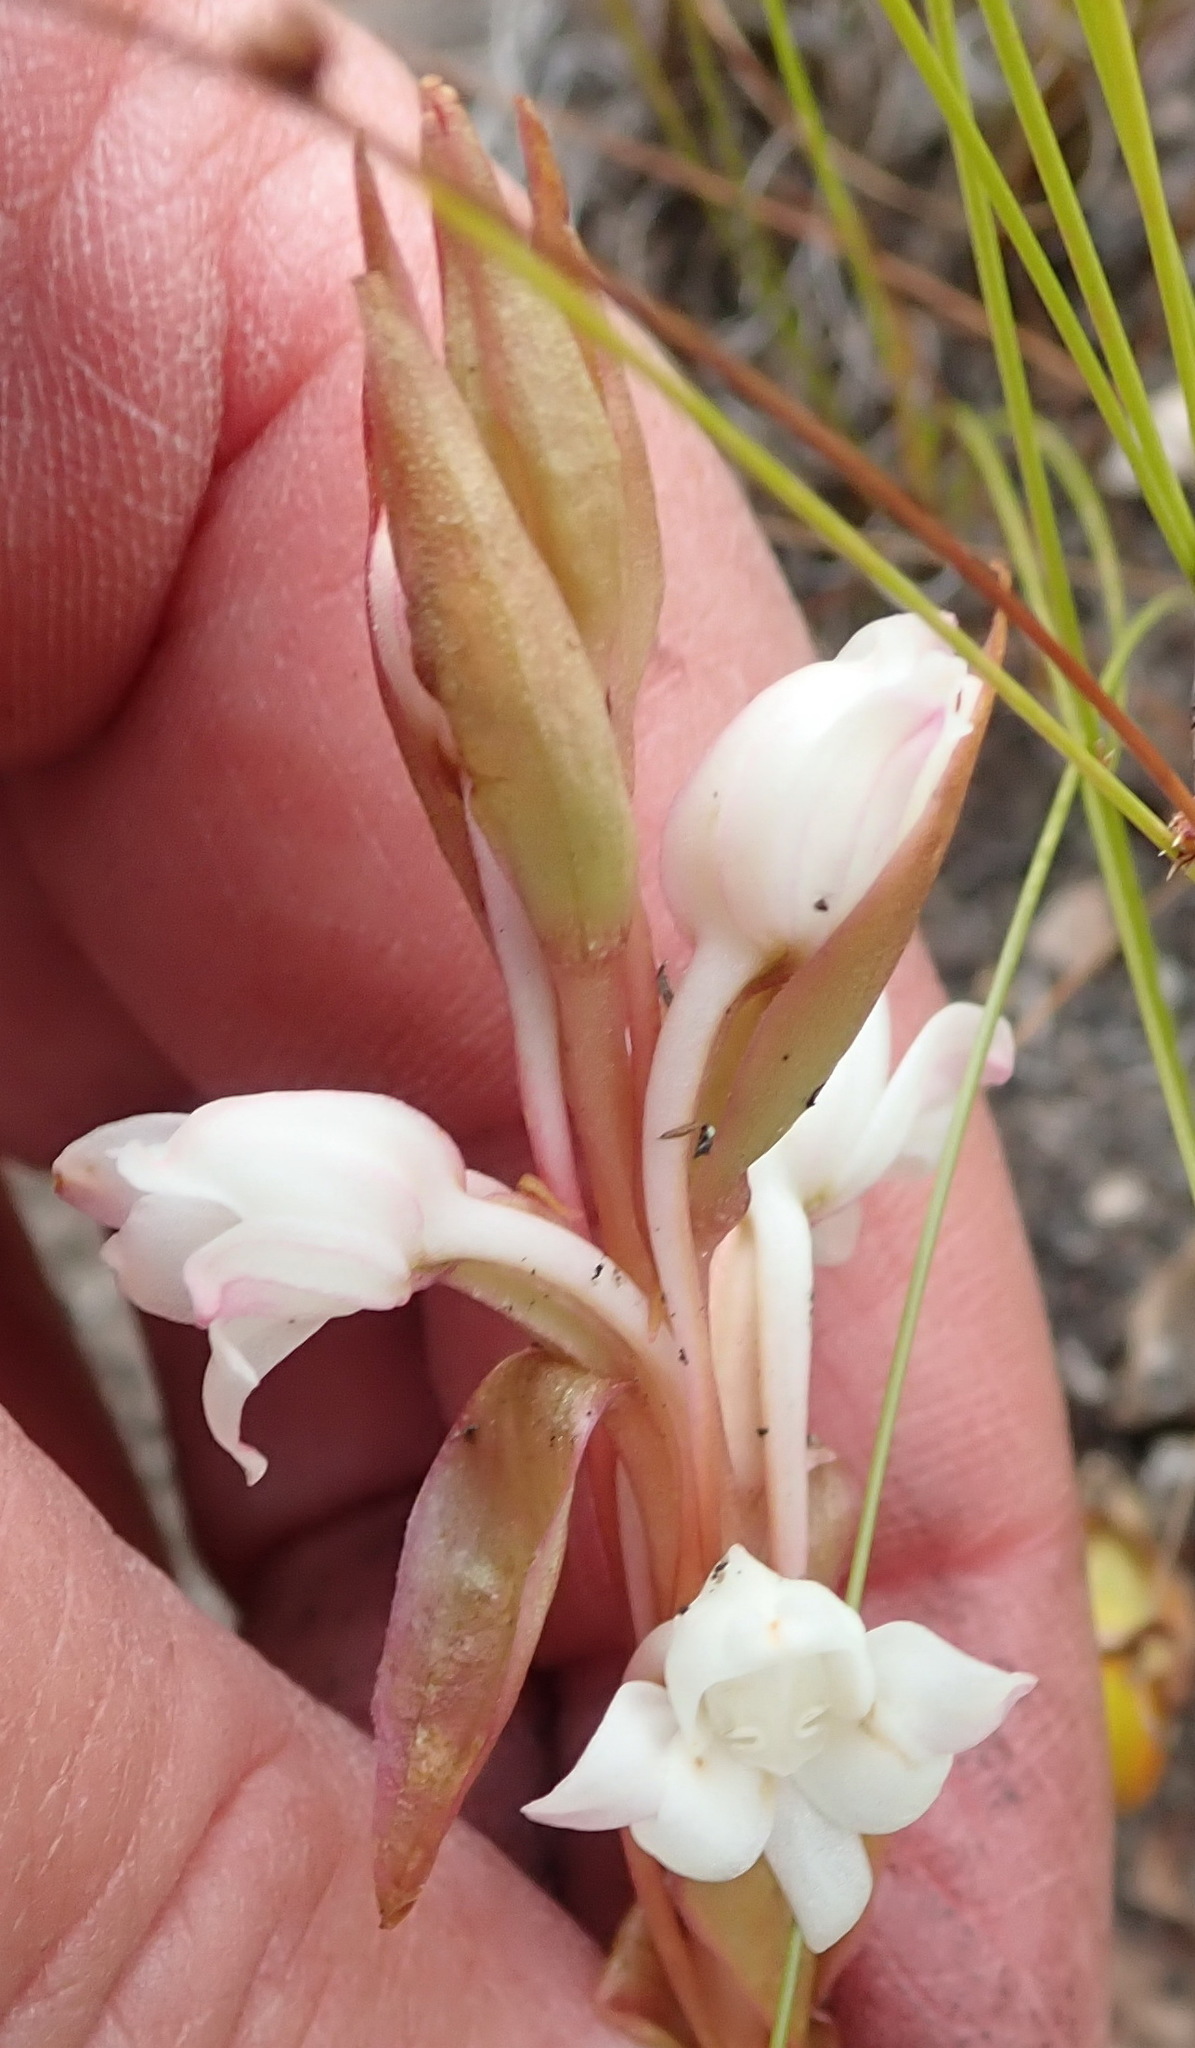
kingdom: Plantae
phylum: Tracheophyta
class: Liliopsida
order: Asparagales
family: Orchidaceae
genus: Satyrium
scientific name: Satyrium acuminatum
